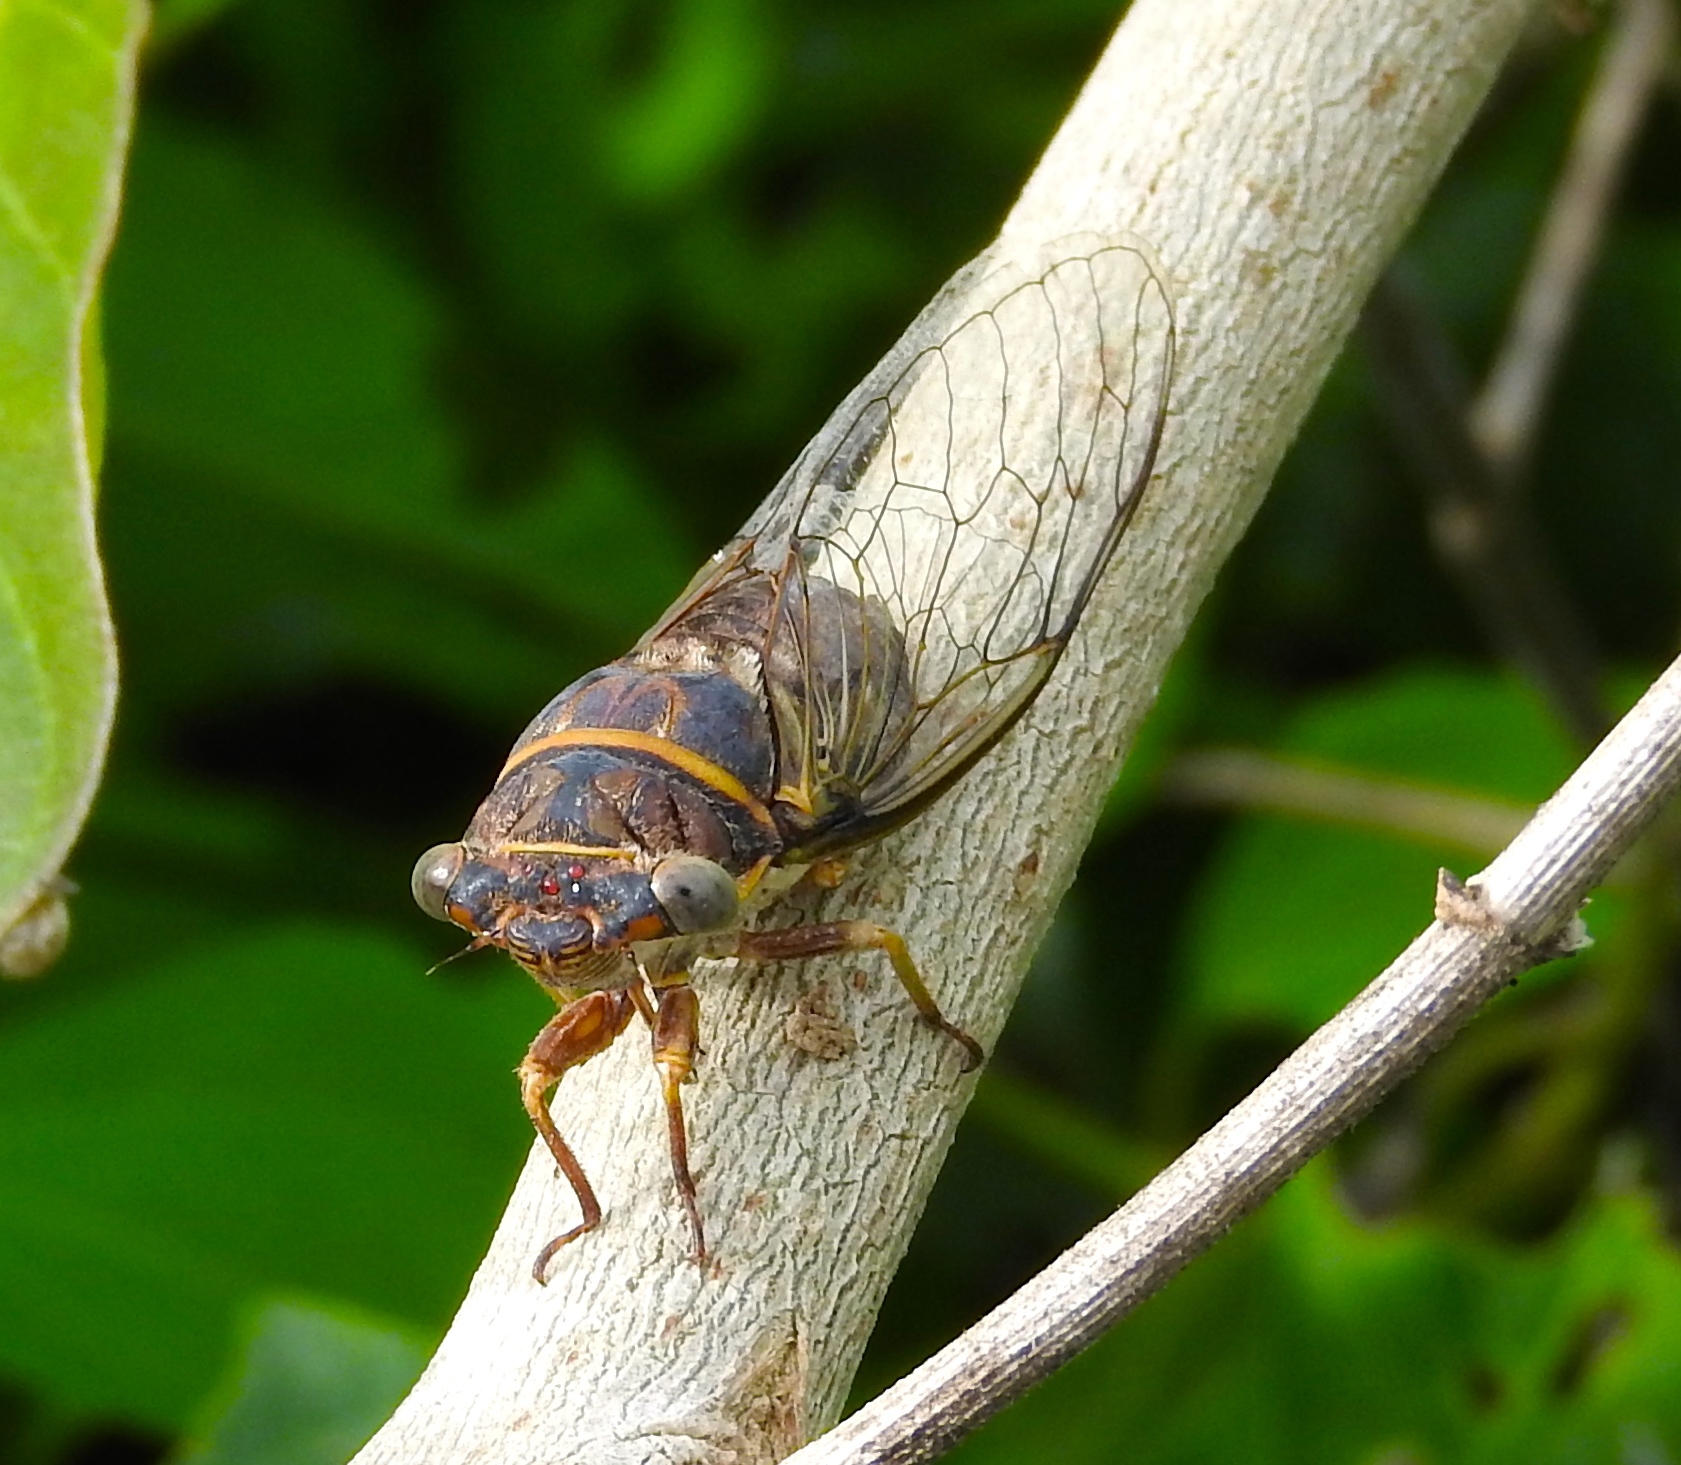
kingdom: Animalia
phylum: Arthropoda
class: Insecta
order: Hemiptera
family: Cicadidae
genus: Diceroprocta
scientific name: Diceroprocta semicincta
